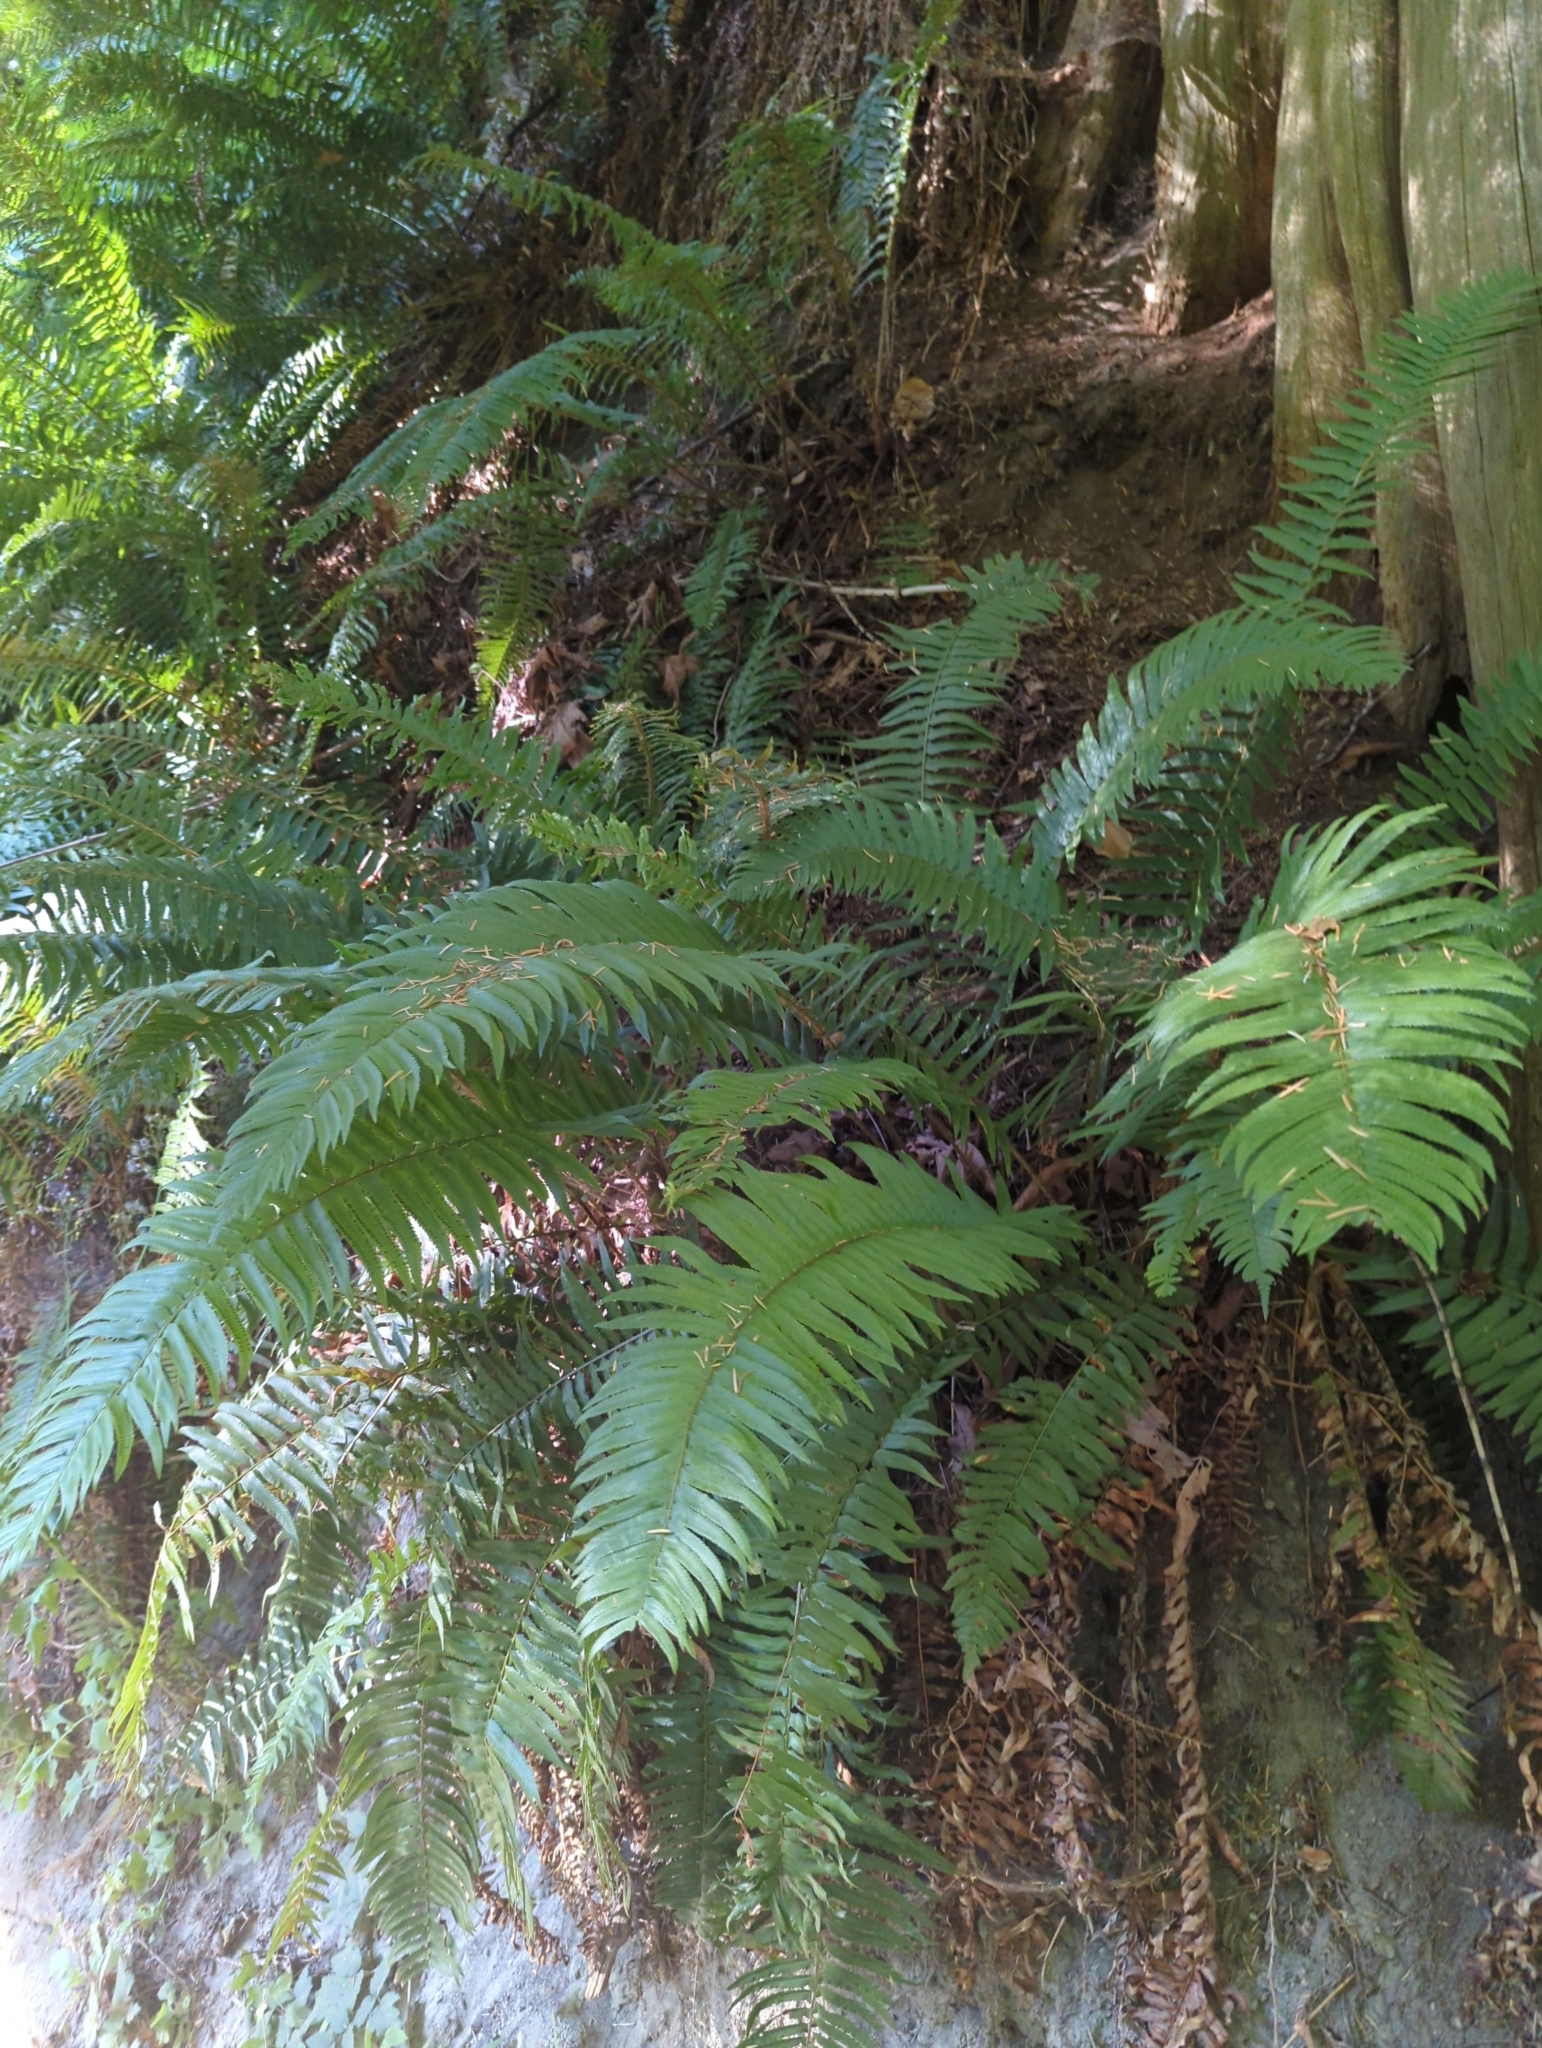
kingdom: Plantae
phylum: Tracheophyta
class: Polypodiopsida
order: Polypodiales
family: Dryopteridaceae
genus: Polystichum
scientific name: Polystichum munitum
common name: Western sword-fern
